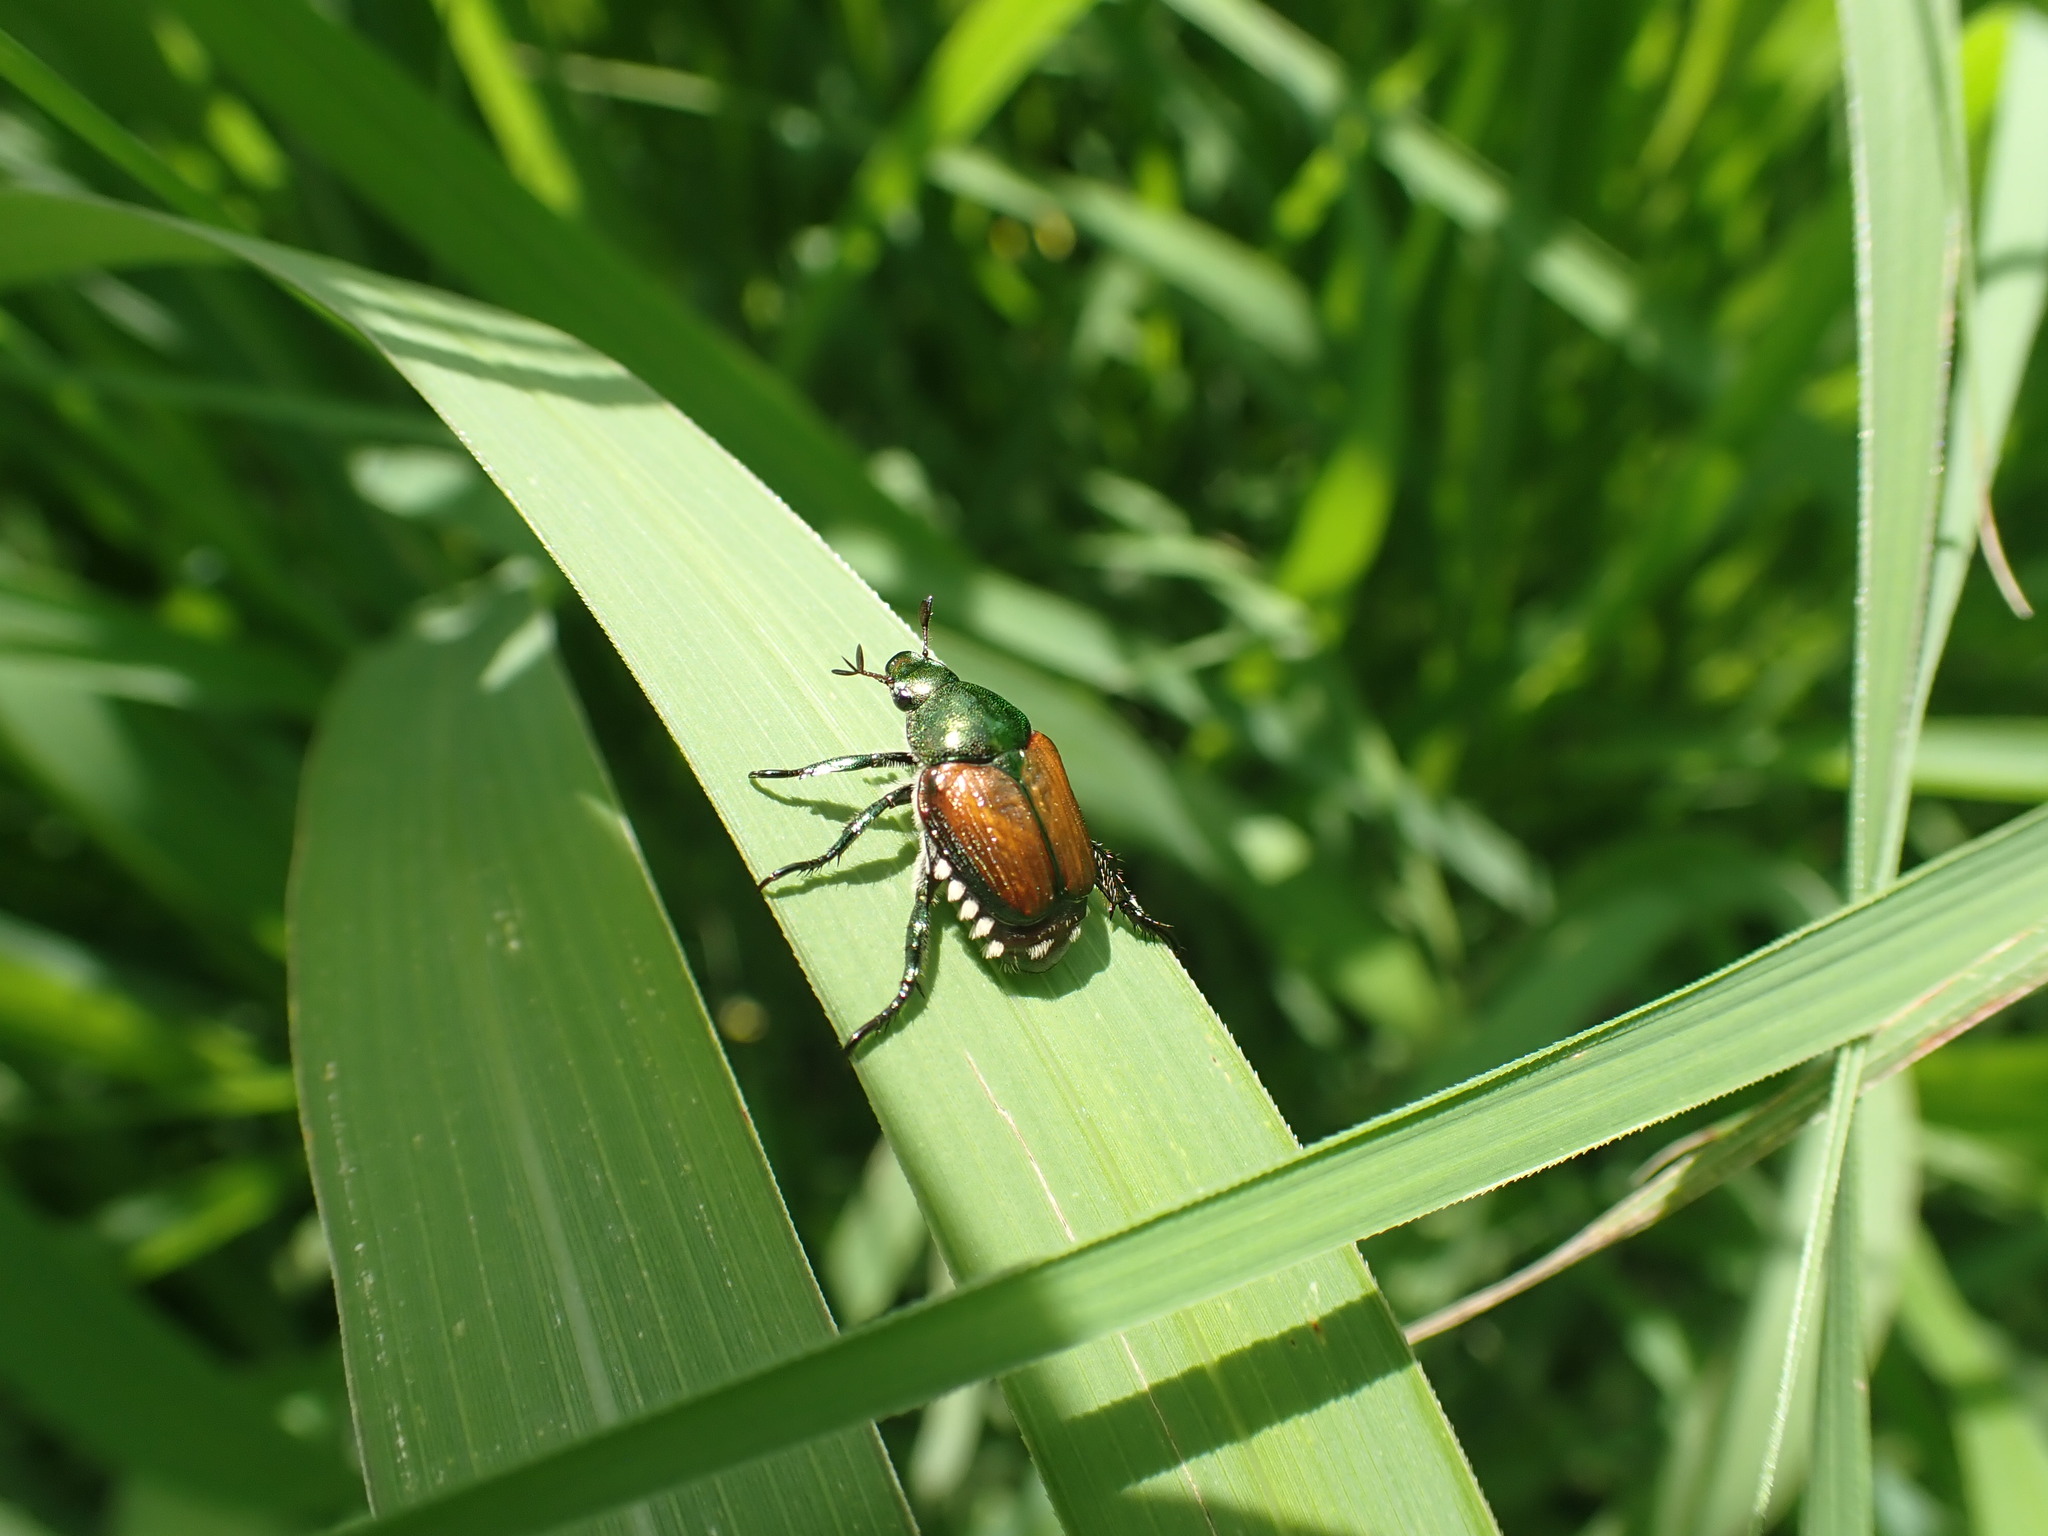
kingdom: Animalia
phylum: Arthropoda
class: Insecta
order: Coleoptera
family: Scarabaeidae
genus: Popillia
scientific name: Popillia japonica
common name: Japanese beetle
